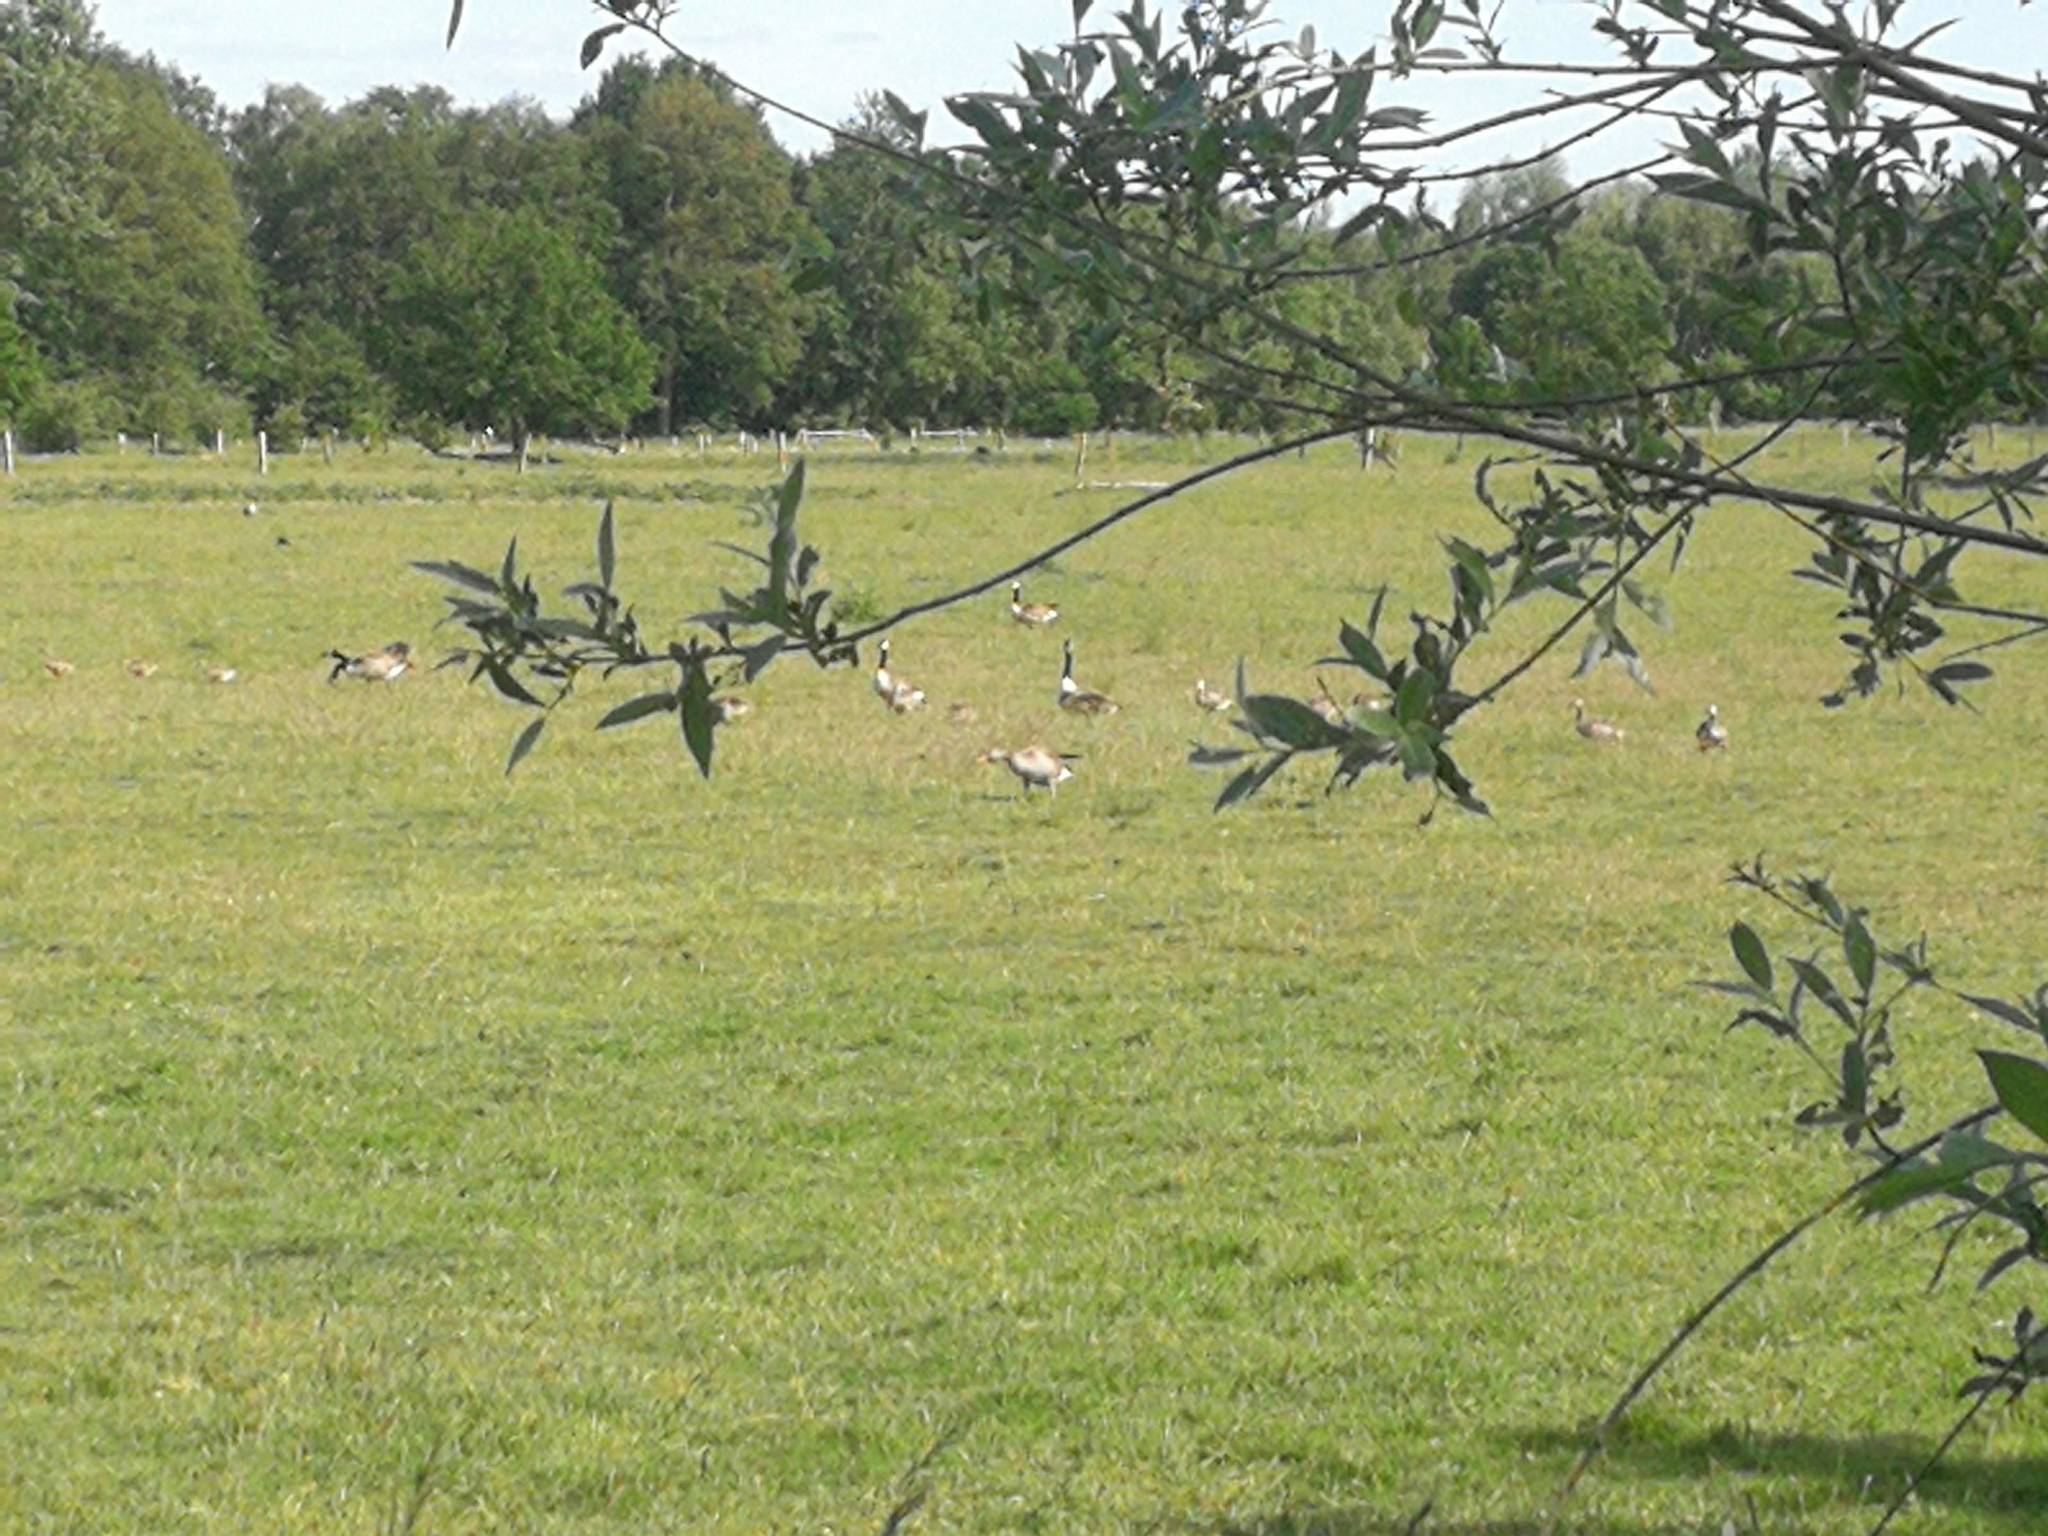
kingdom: Animalia
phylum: Chordata
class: Aves
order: Anseriformes
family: Anatidae
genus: Branta
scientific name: Branta canadensis
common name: Canada goose
